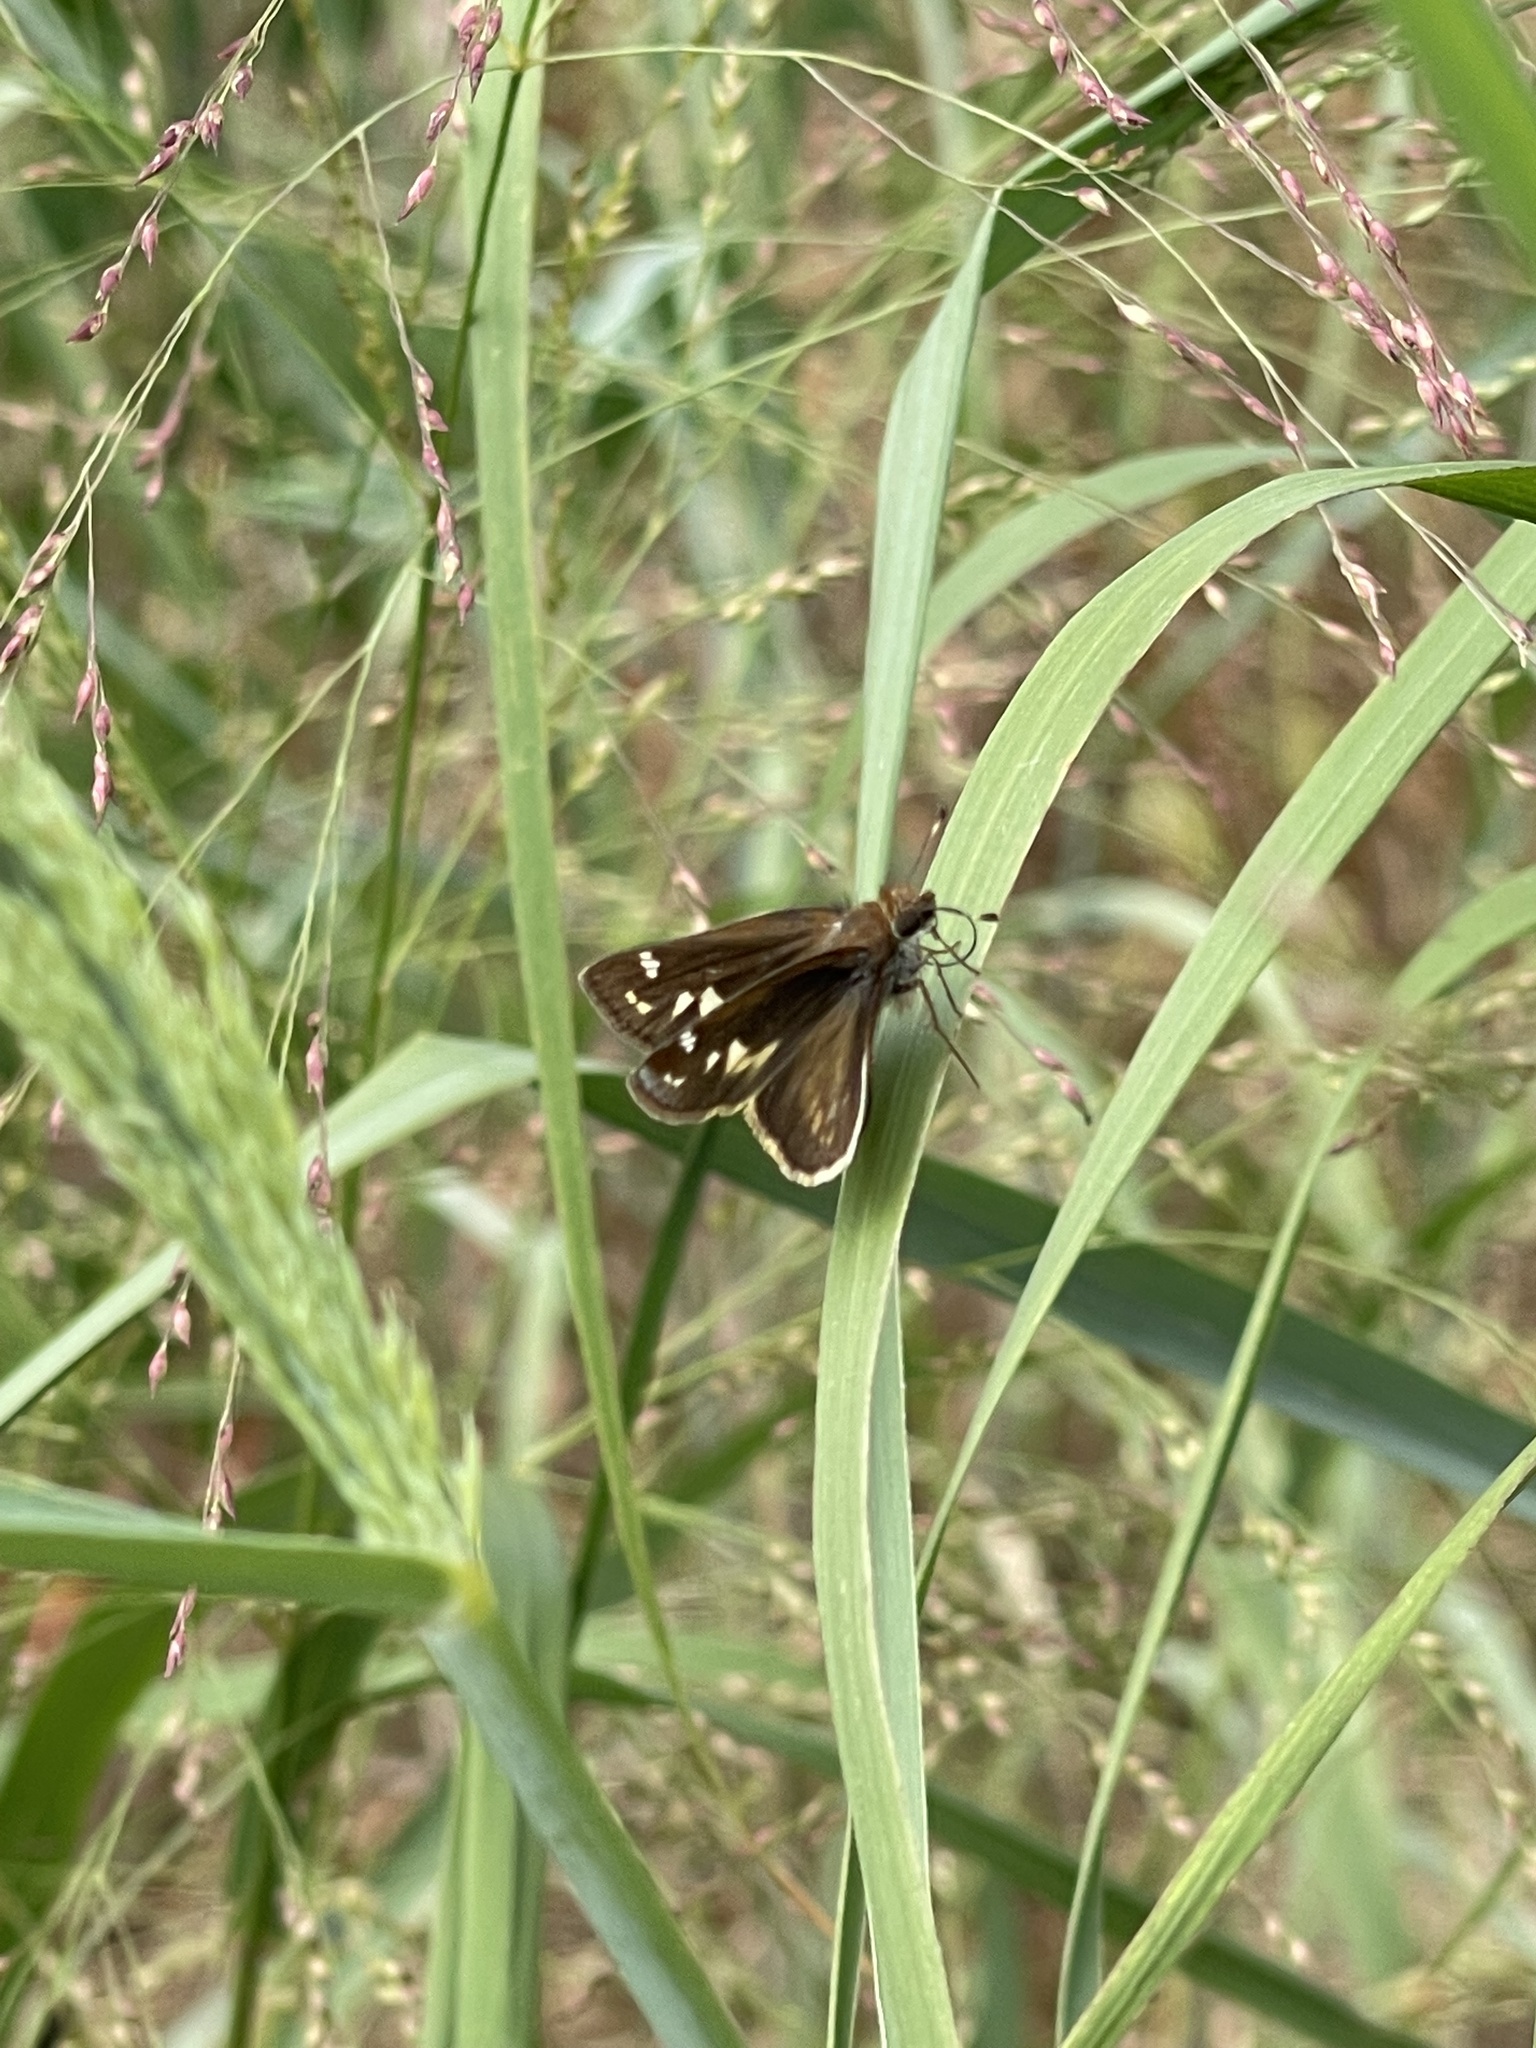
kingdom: Animalia
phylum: Arthropoda
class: Insecta
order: Lepidoptera
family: Hesperiidae
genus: Lon
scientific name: Lon zabulon
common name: Zabulon skipper
